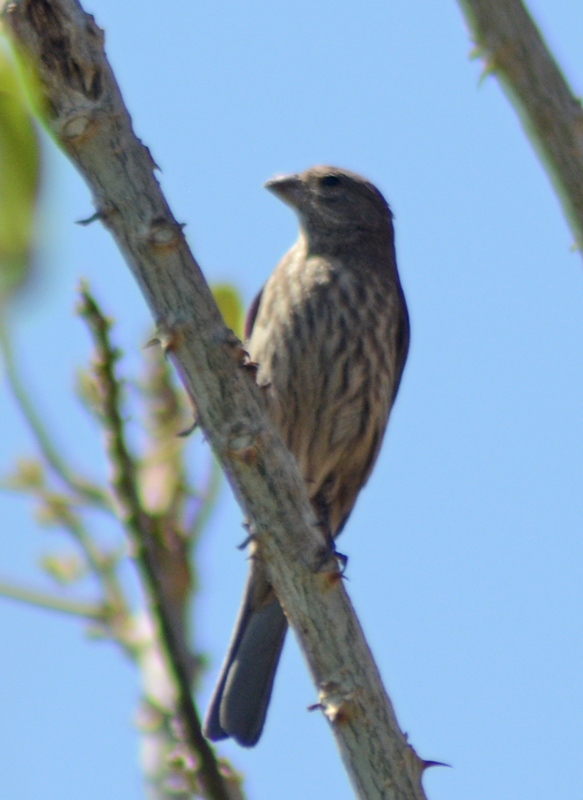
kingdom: Animalia
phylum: Chordata
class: Aves
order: Passeriformes
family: Fringillidae
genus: Haemorhous
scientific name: Haemorhous mexicanus
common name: House finch
